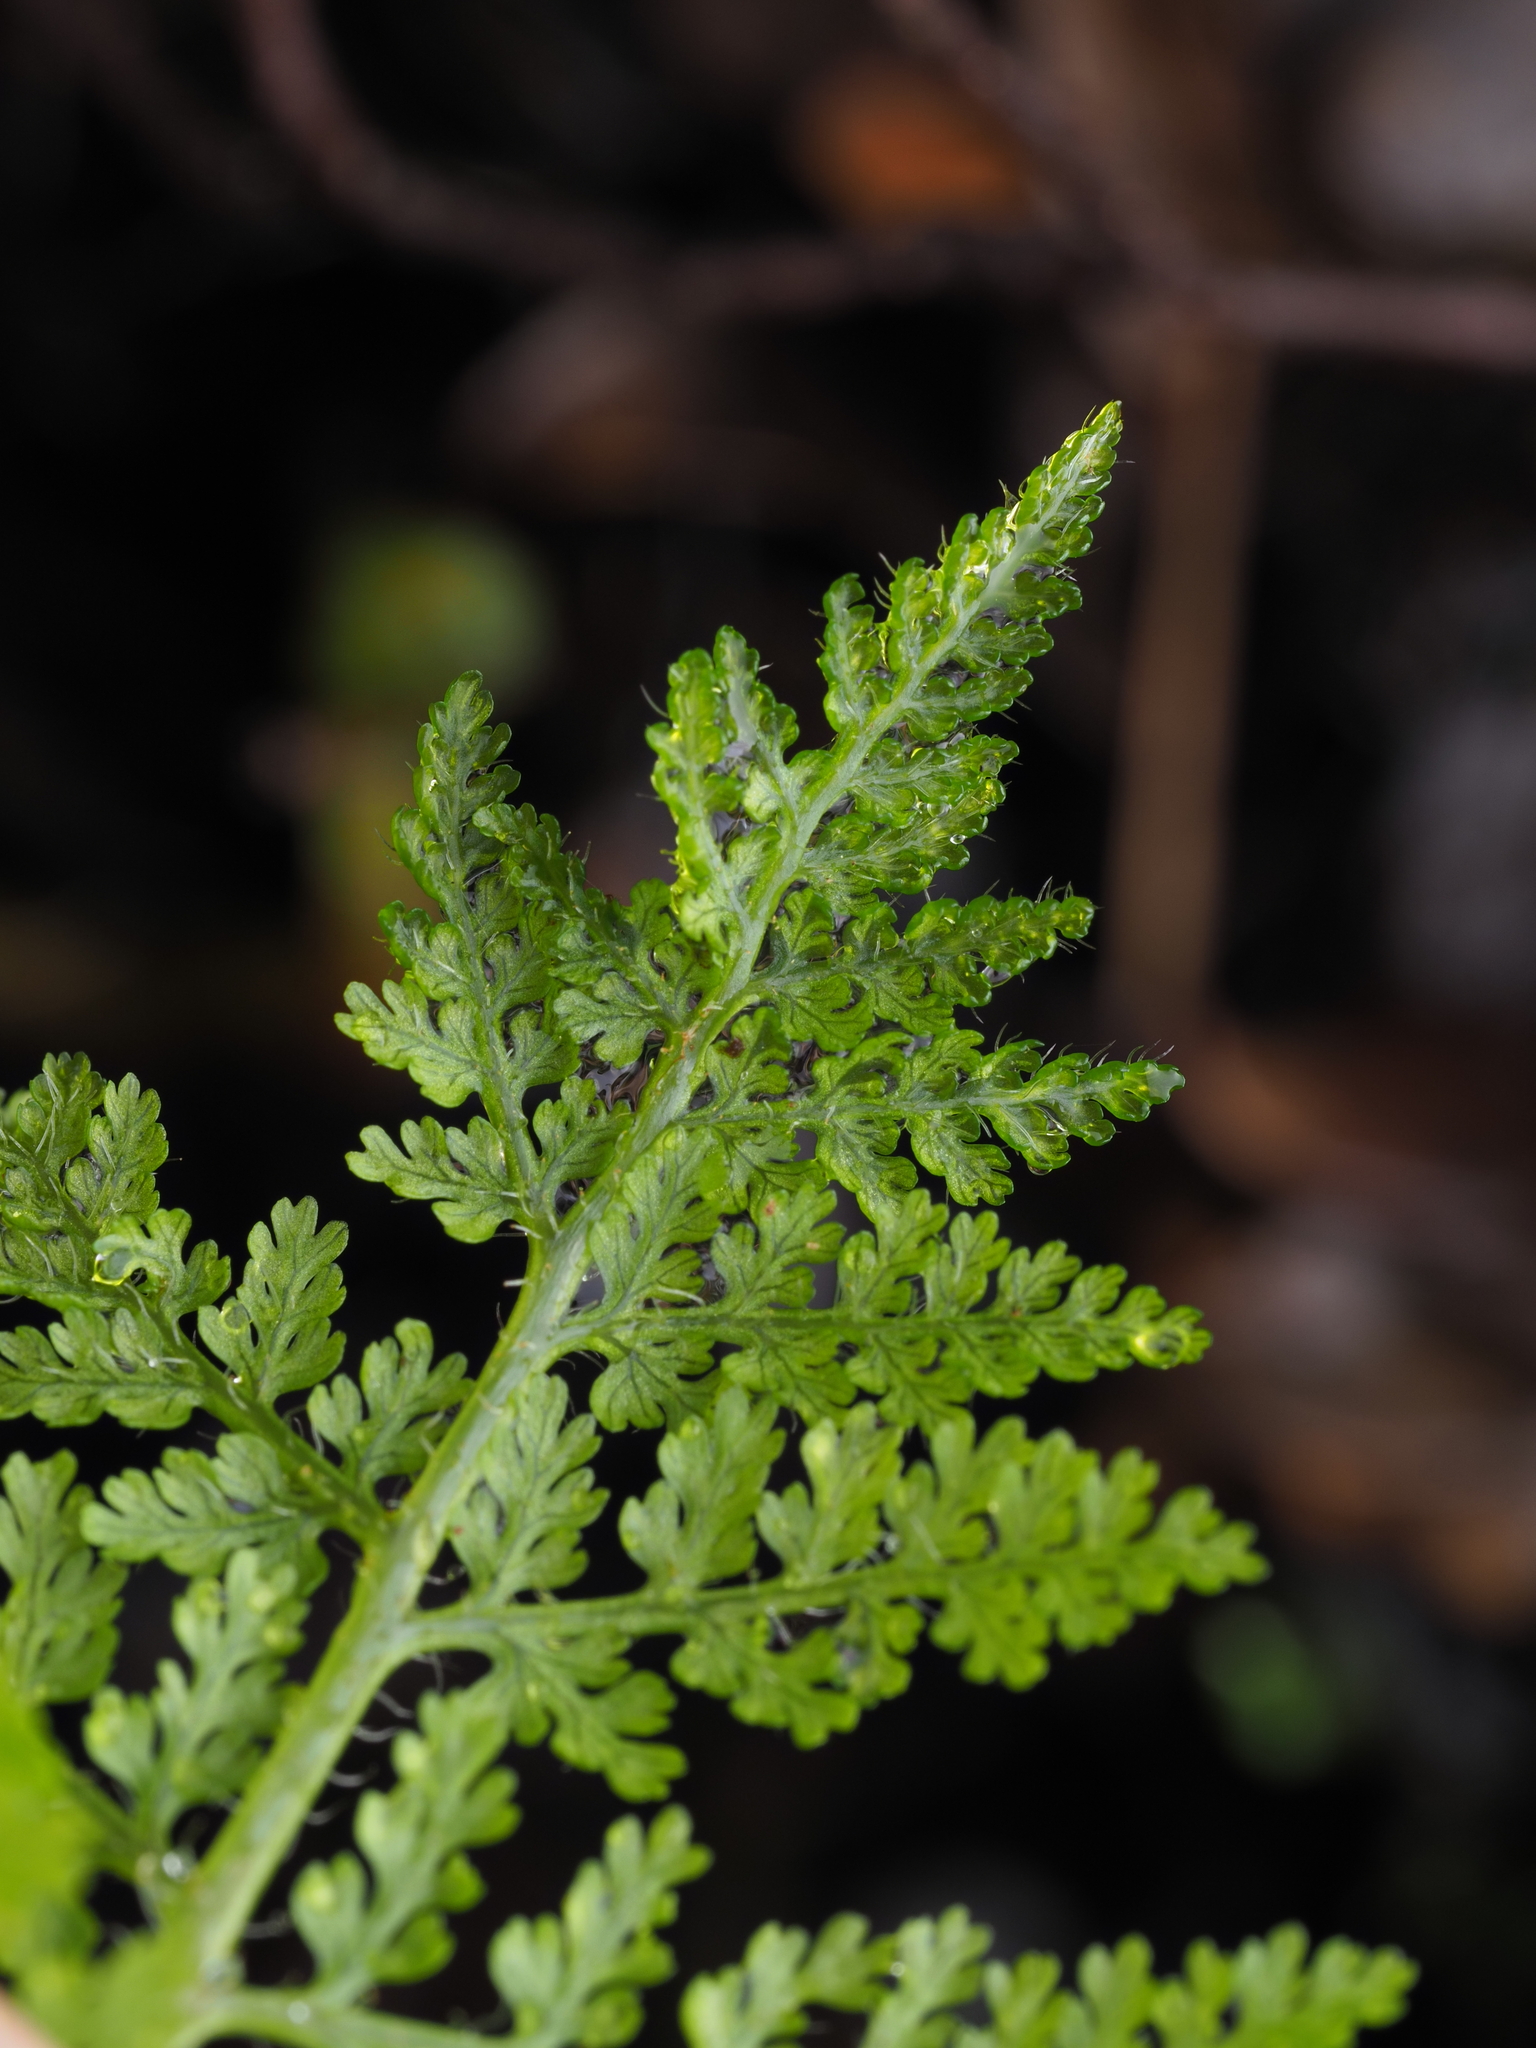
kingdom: Plantae
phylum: Tracheophyta
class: Polypodiopsida
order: Polypodiales
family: Dennstaedtiaceae
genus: Hypolepis
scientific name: Hypolepis millefolium
